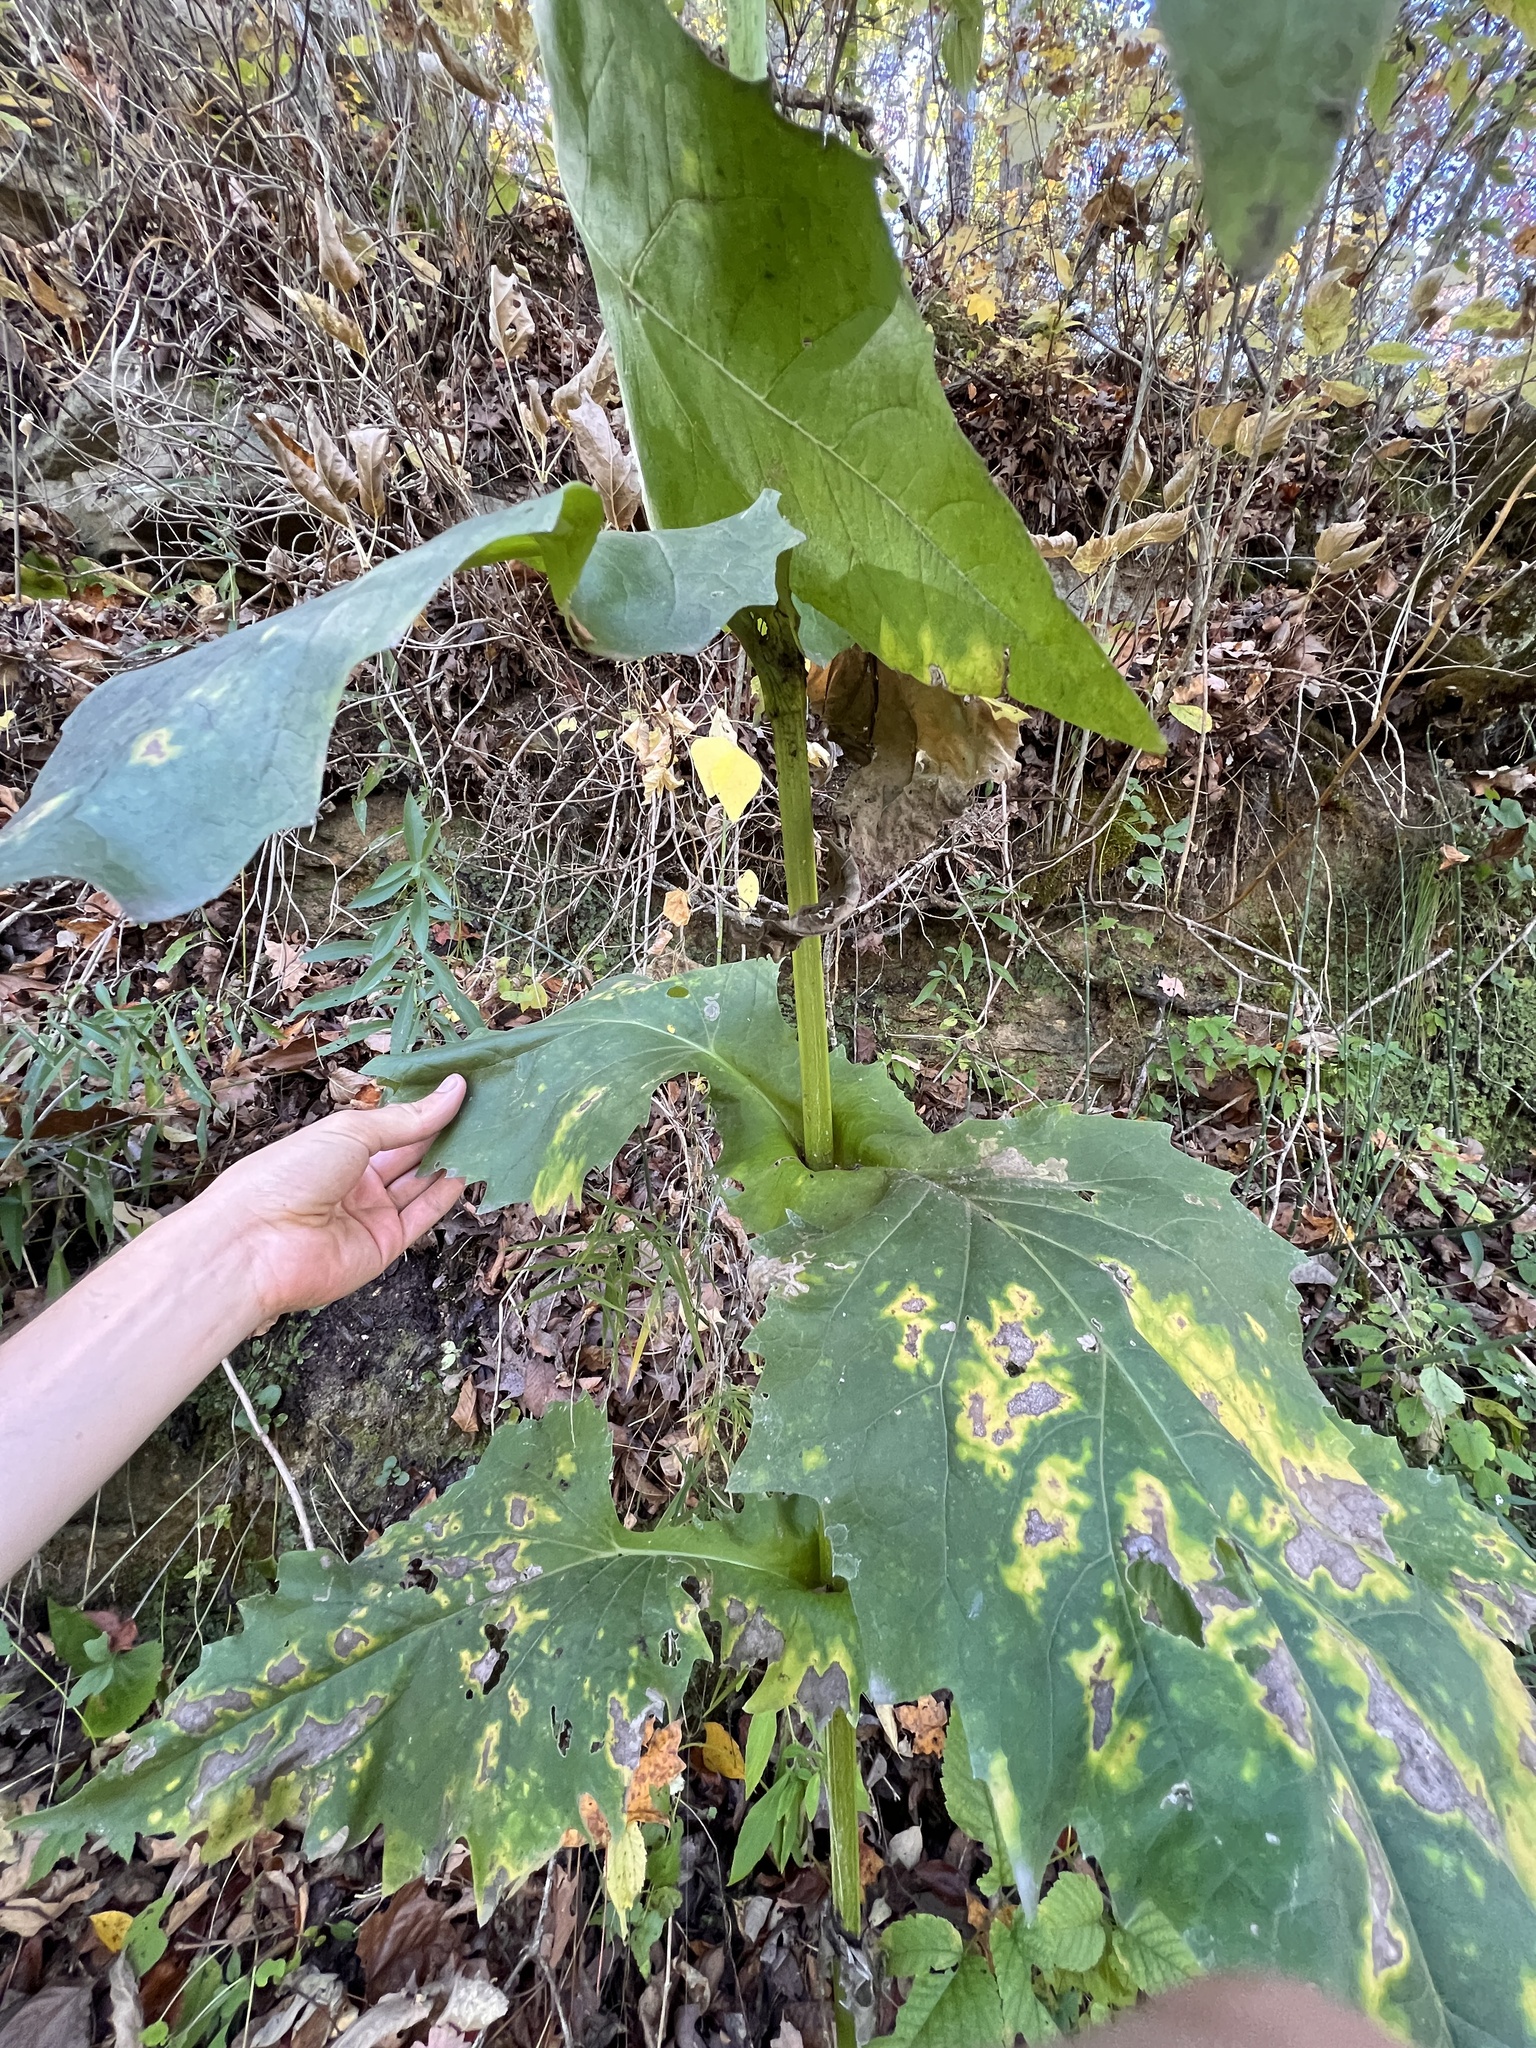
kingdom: Plantae
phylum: Tracheophyta
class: Magnoliopsida
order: Asterales
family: Asteraceae
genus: Silphium
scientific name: Silphium perfoliatum
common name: Cup-plant
